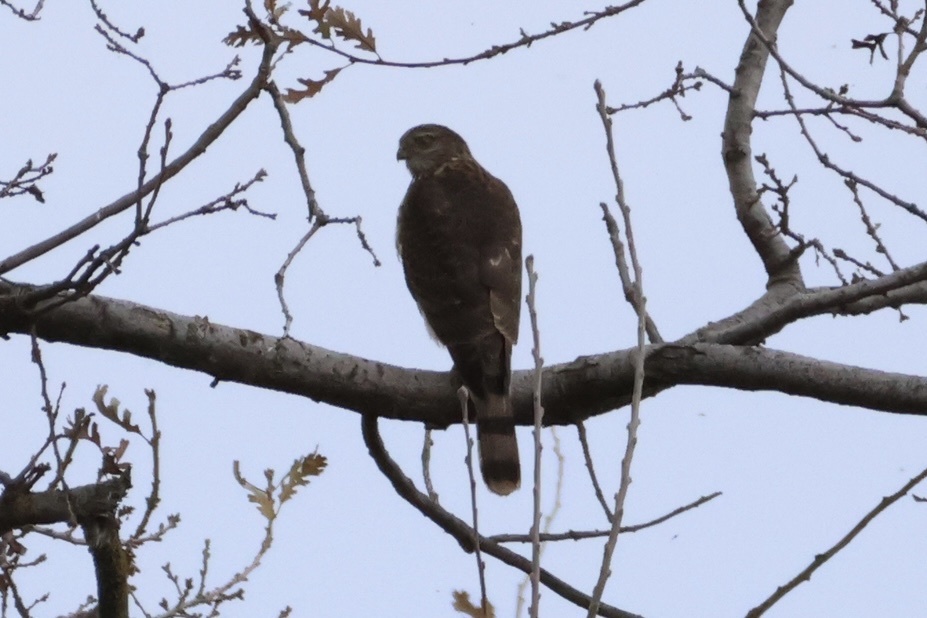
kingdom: Animalia
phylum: Chordata
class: Aves
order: Accipitriformes
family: Accipitridae
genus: Accipiter
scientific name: Accipiter striatus
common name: Sharp-shinned hawk
